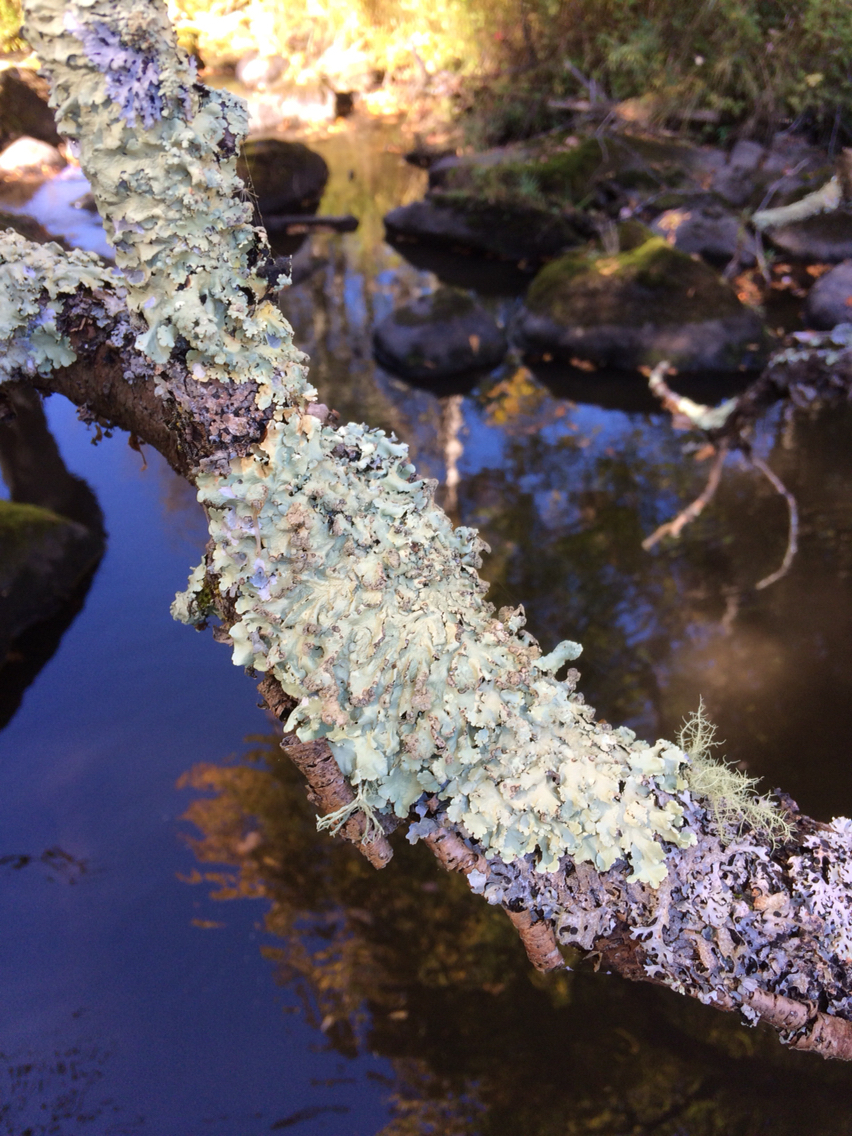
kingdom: Fungi
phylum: Ascomycota
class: Lecanoromycetes
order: Lecanorales
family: Parmeliaceae
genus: Flavoparmelia
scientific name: Flavoparmelia caperata
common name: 40-mile per hour lichen
